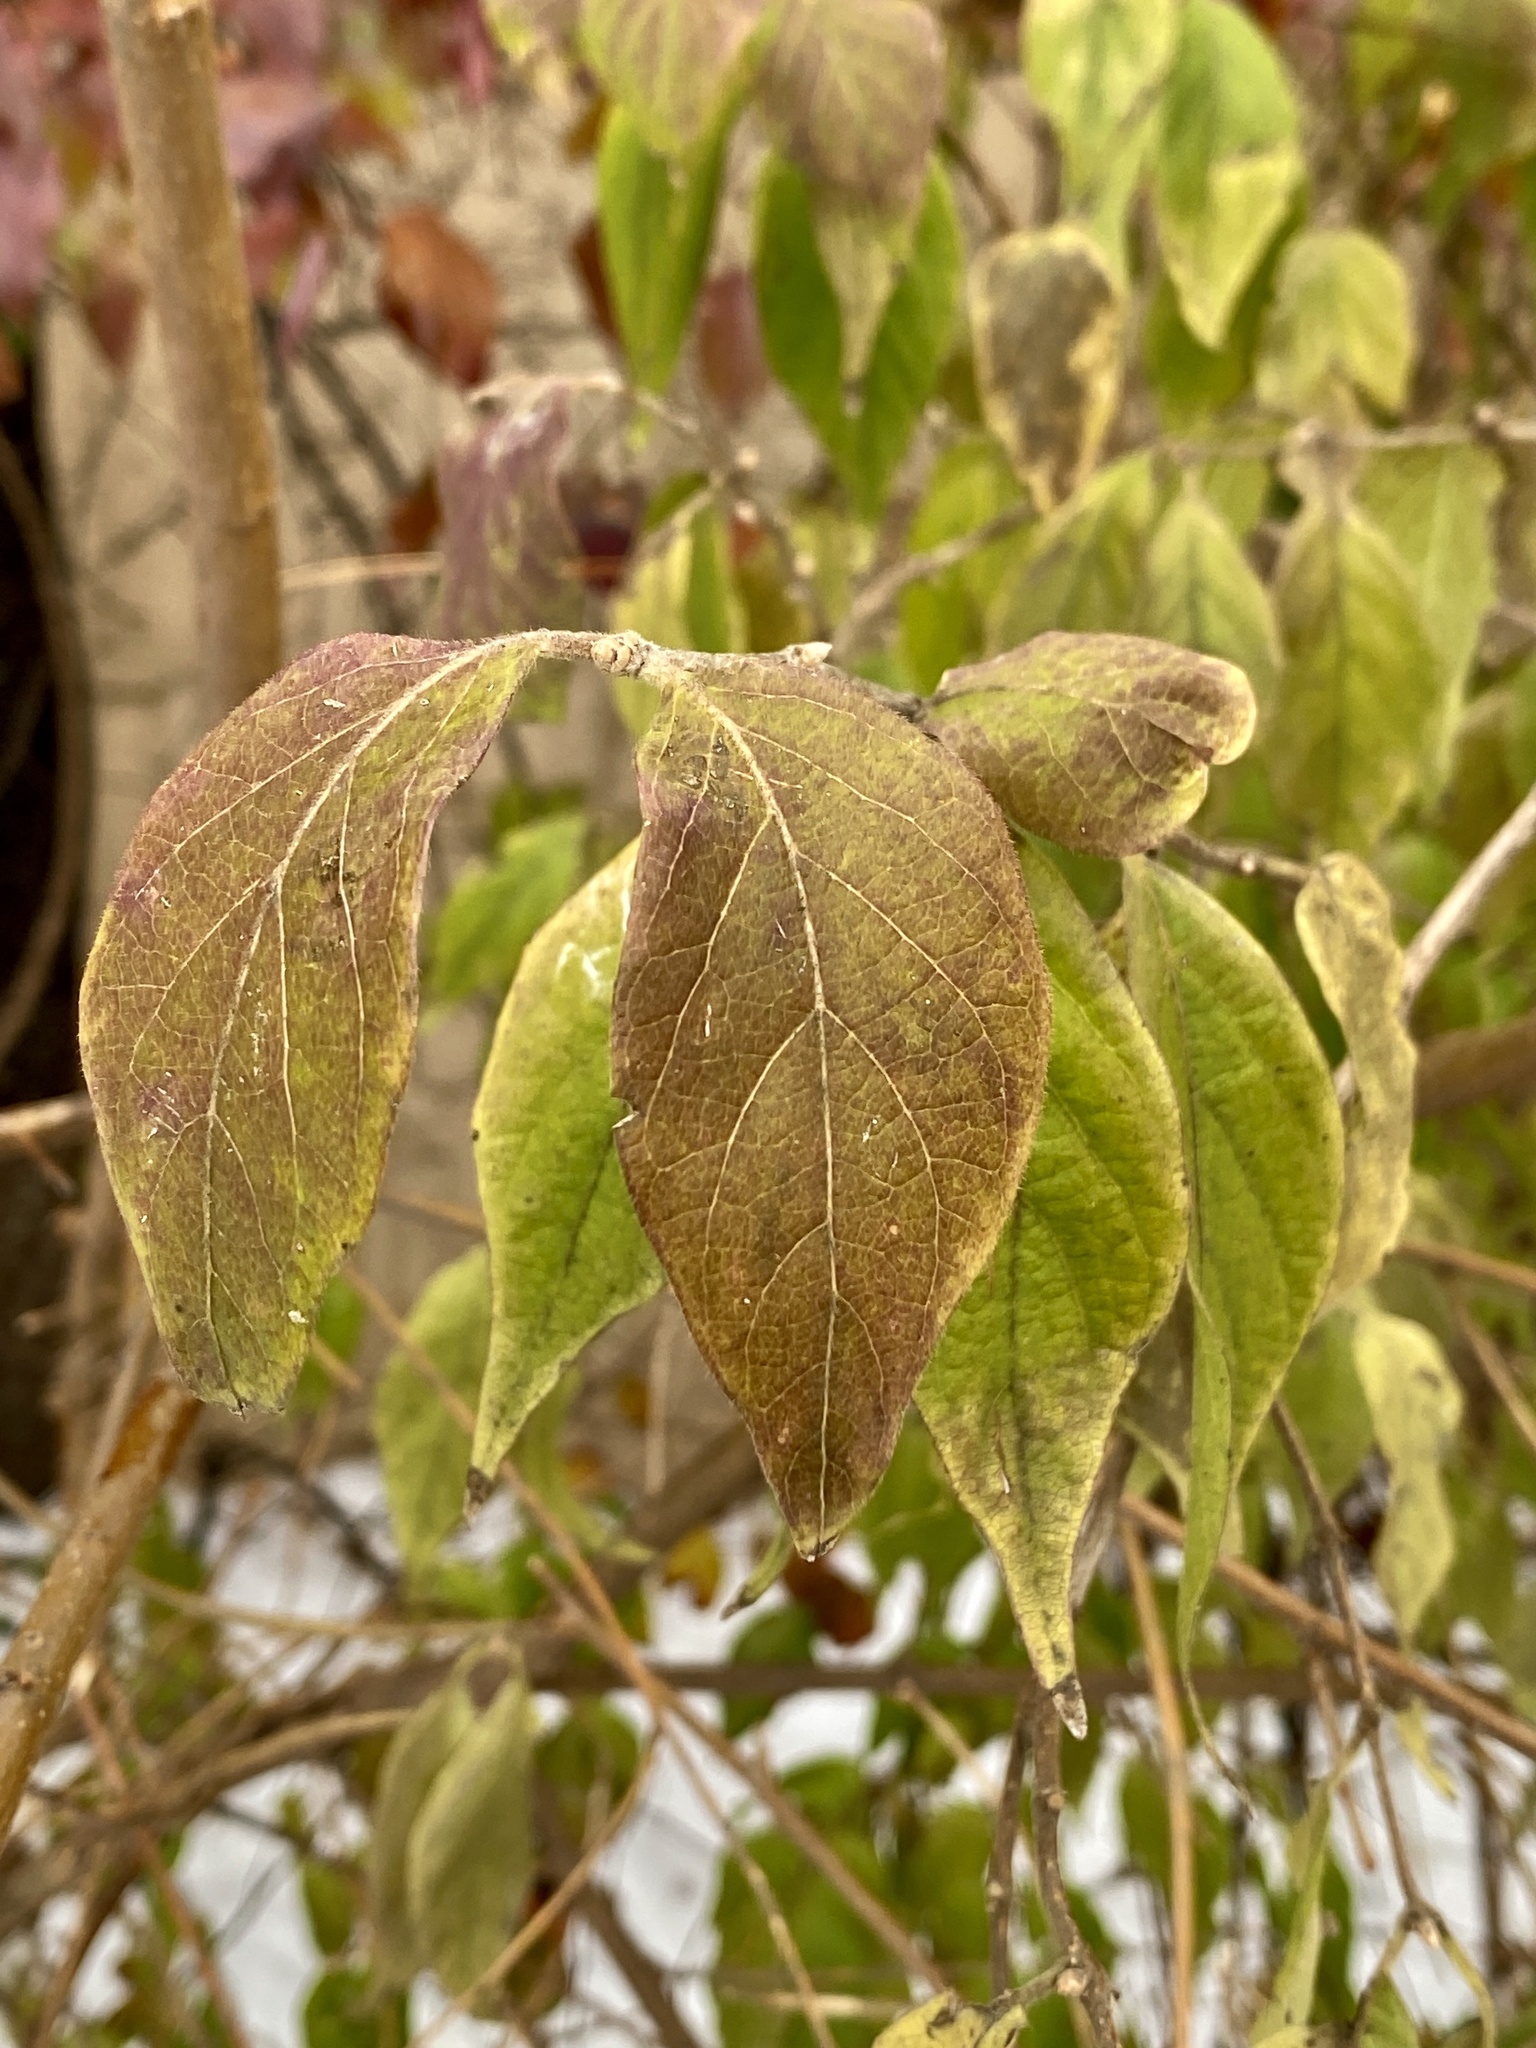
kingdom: Plantae
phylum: Tracheophyta
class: Magnoliopsida
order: Dipsacales
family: Caprifoliaceae
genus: Lonicera
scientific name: Lonicera maackii
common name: Amur honeysuckle
